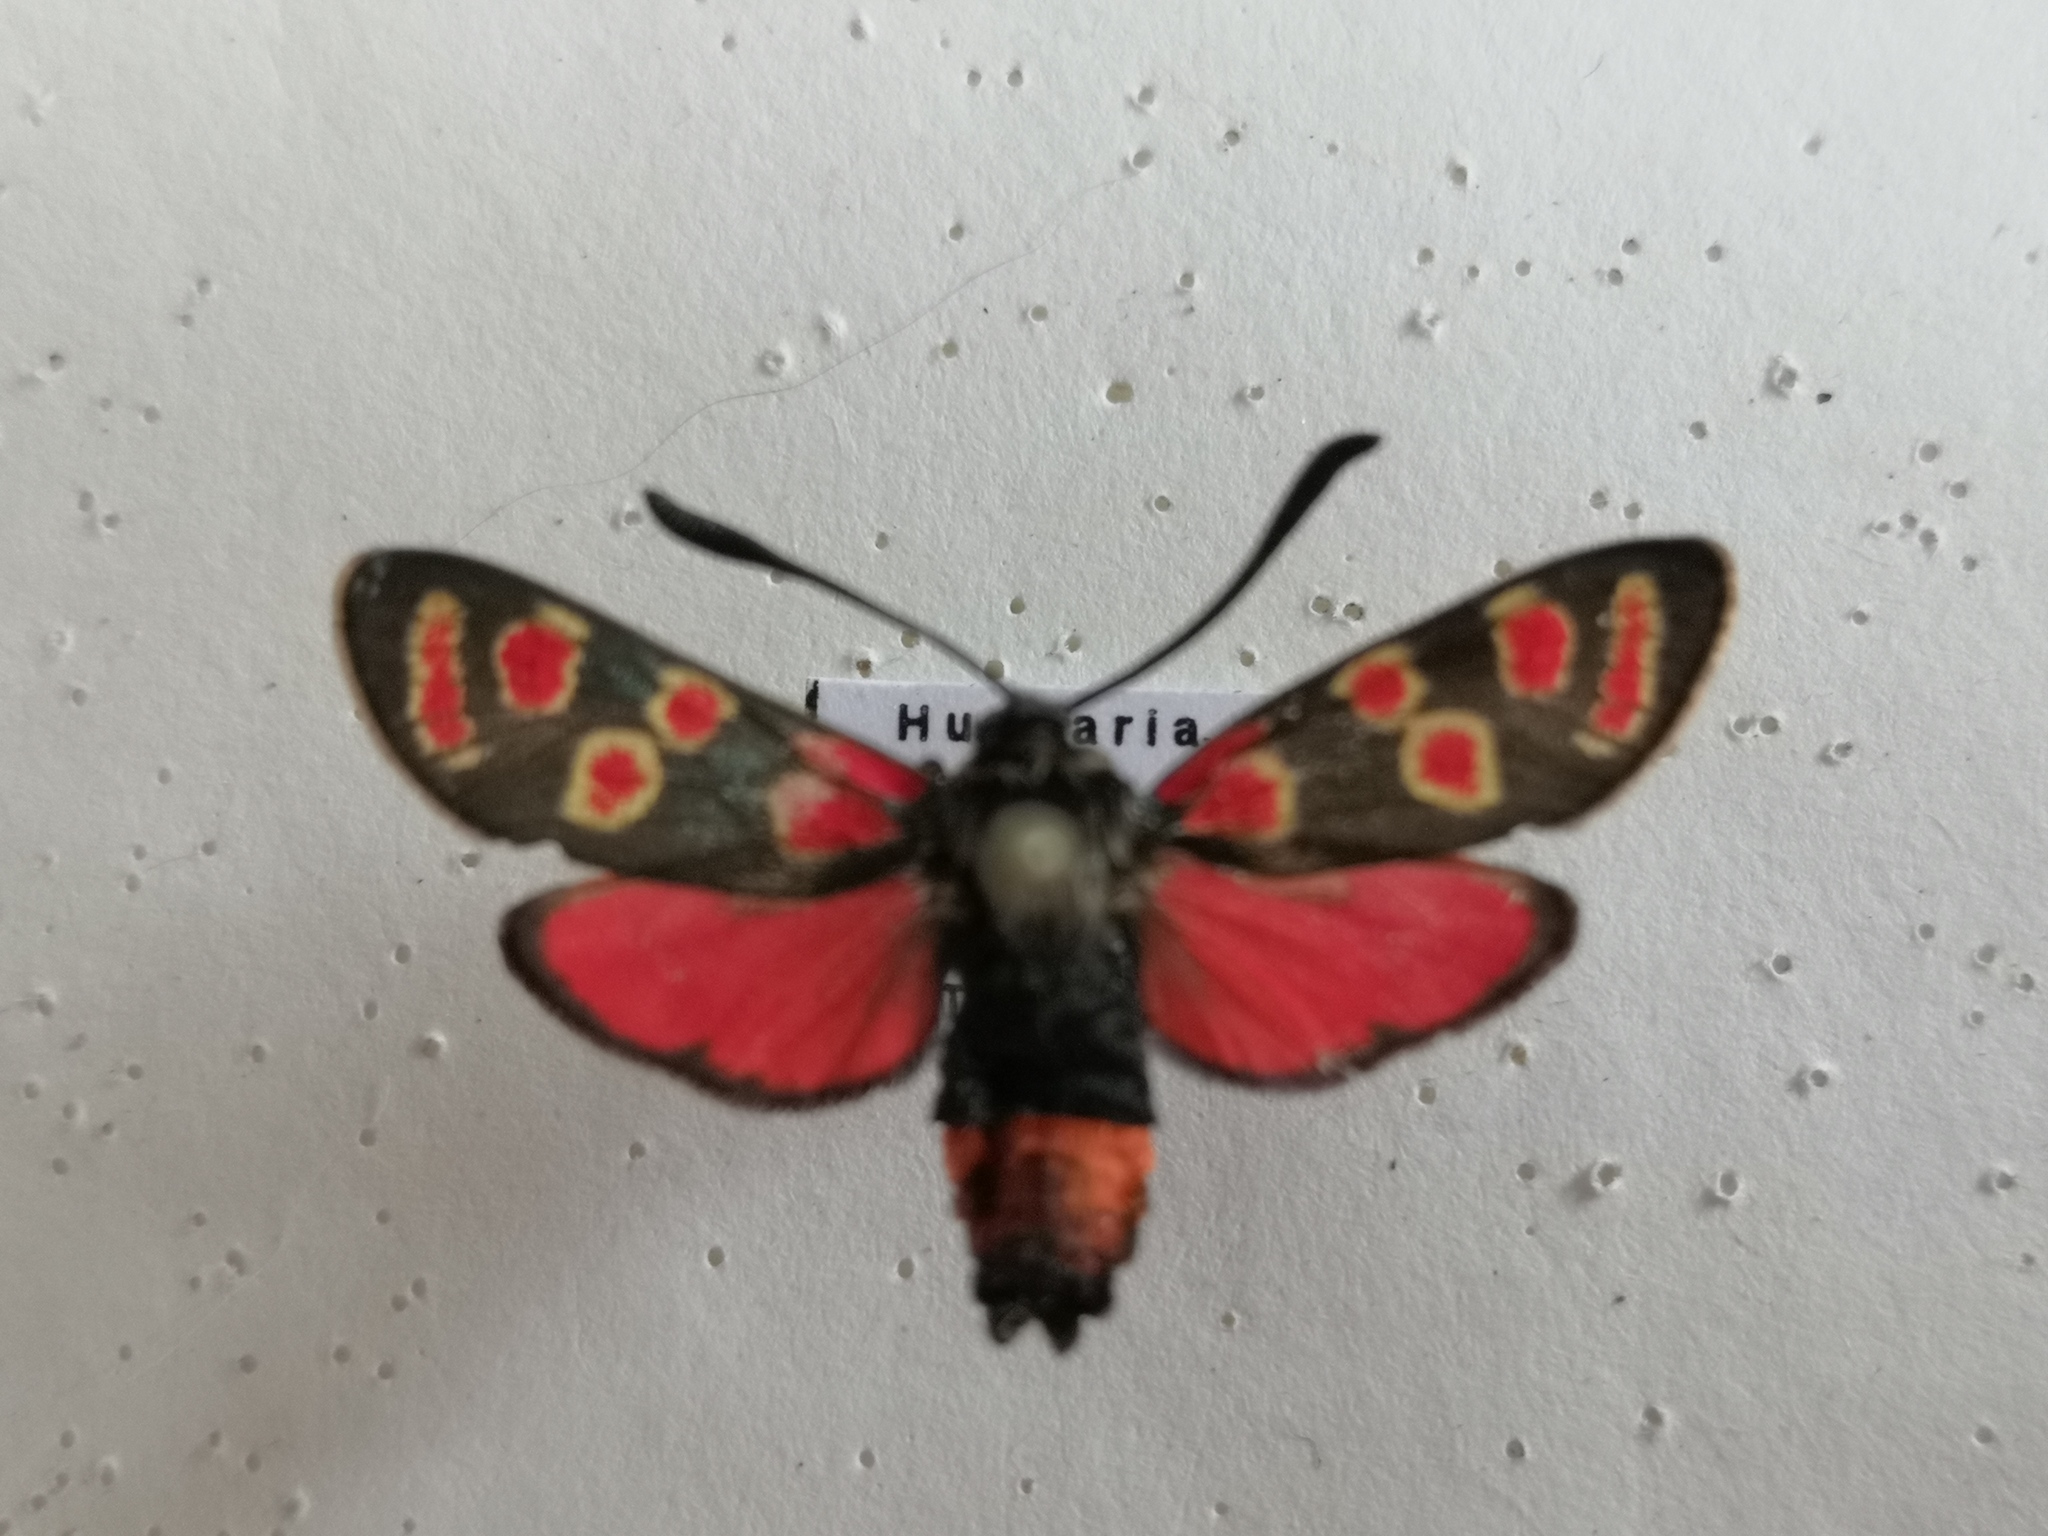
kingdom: Animalia
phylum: Arthropoda
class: Insecta
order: Lepidoptera
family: Zygaenidae
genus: Zygaena
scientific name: Zygaena carniolica
